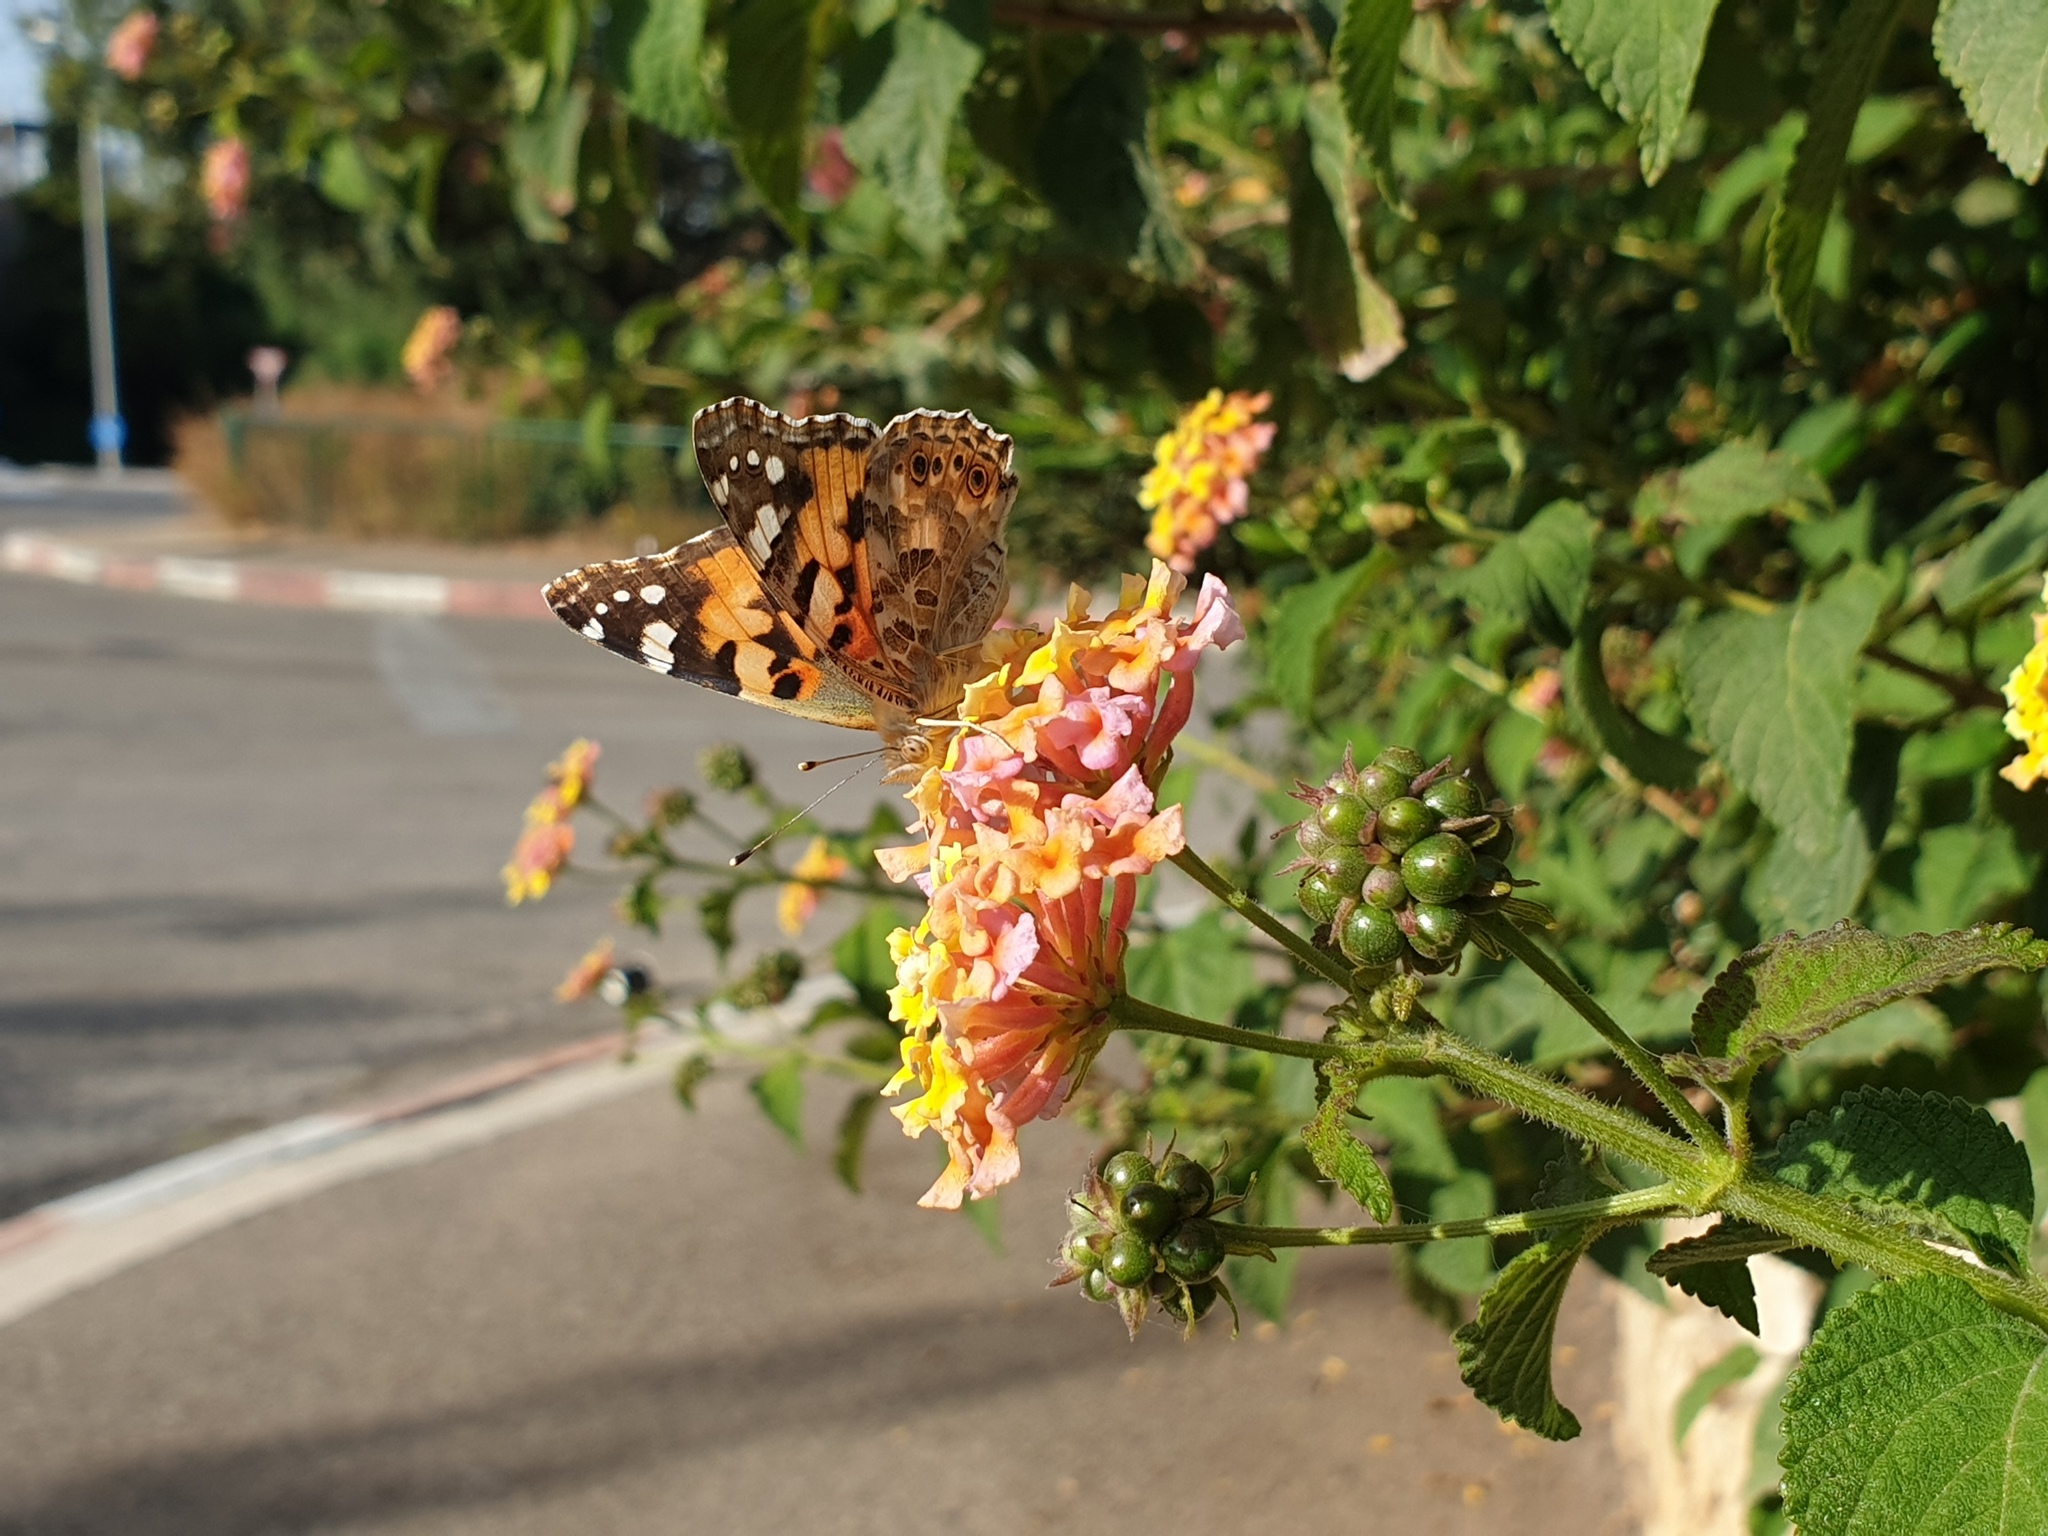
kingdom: Animalia
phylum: Arthropoda
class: Insecta
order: Lepidoptera
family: Nymphalidae
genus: Vanessa
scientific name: Vanessa cardui
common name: Painted lady
